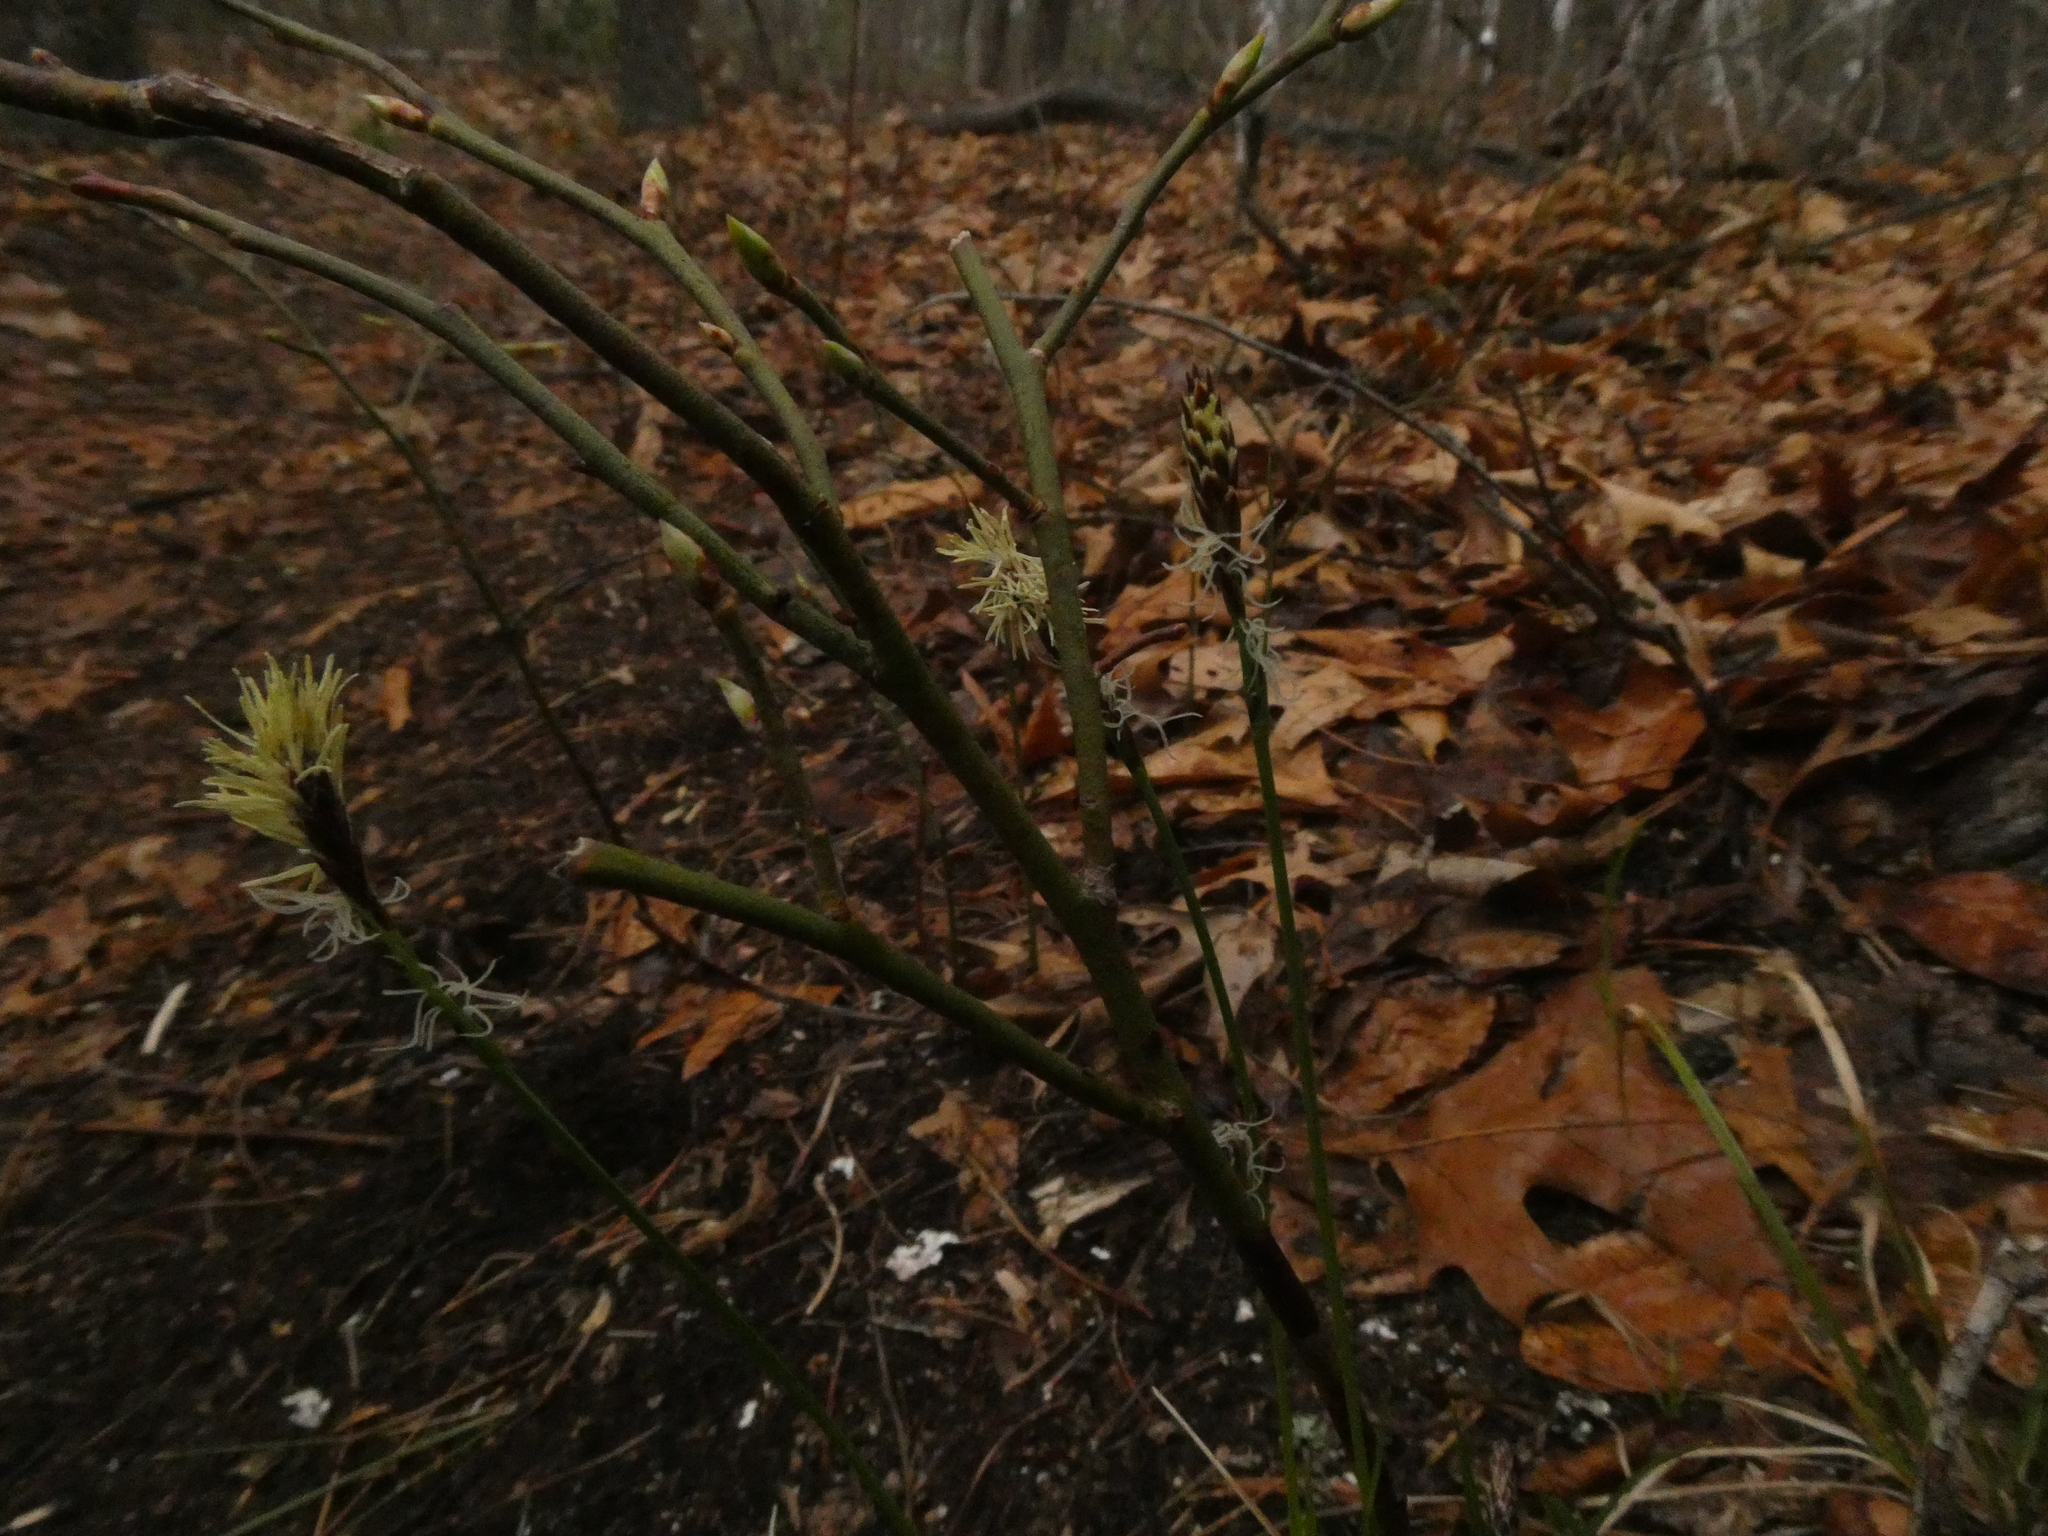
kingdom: Plantae
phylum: Tracheophyta
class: Liliopsida
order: Poales
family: Cyperaceae
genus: Carex
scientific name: Carex pensylvanica
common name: Common oak sedge
